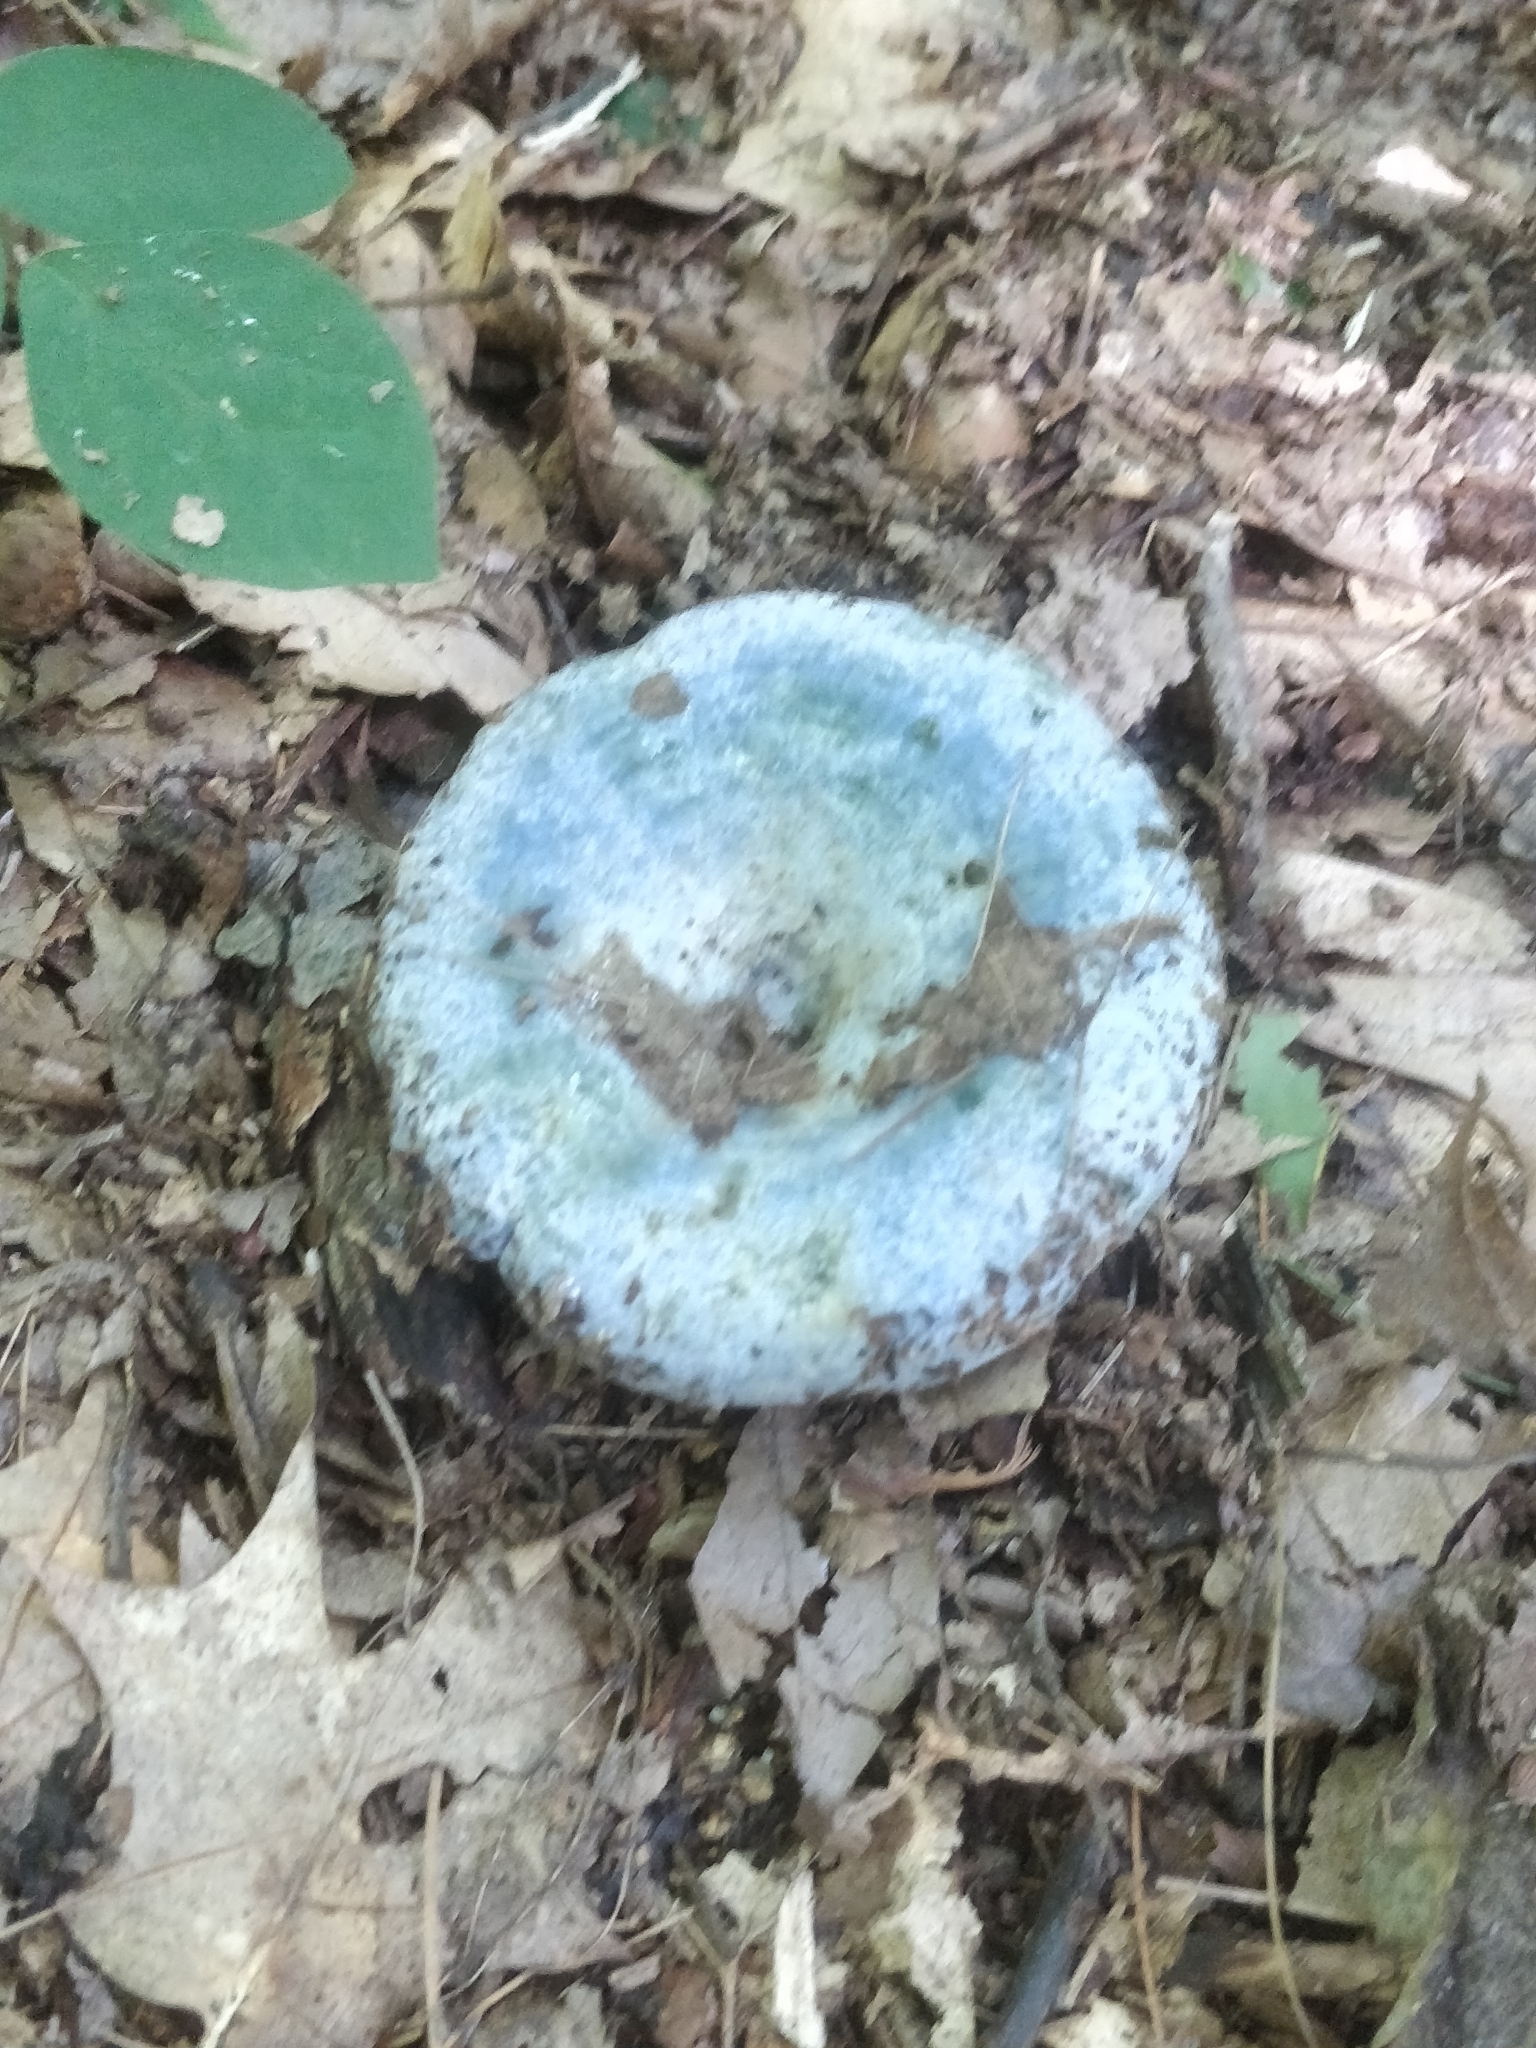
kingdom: Fungi
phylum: Basidiomycota
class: Agaricomycetes
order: Russulales
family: Russulaceae
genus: Lactarius
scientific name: Lactarius indigo
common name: Indigo milk cap
